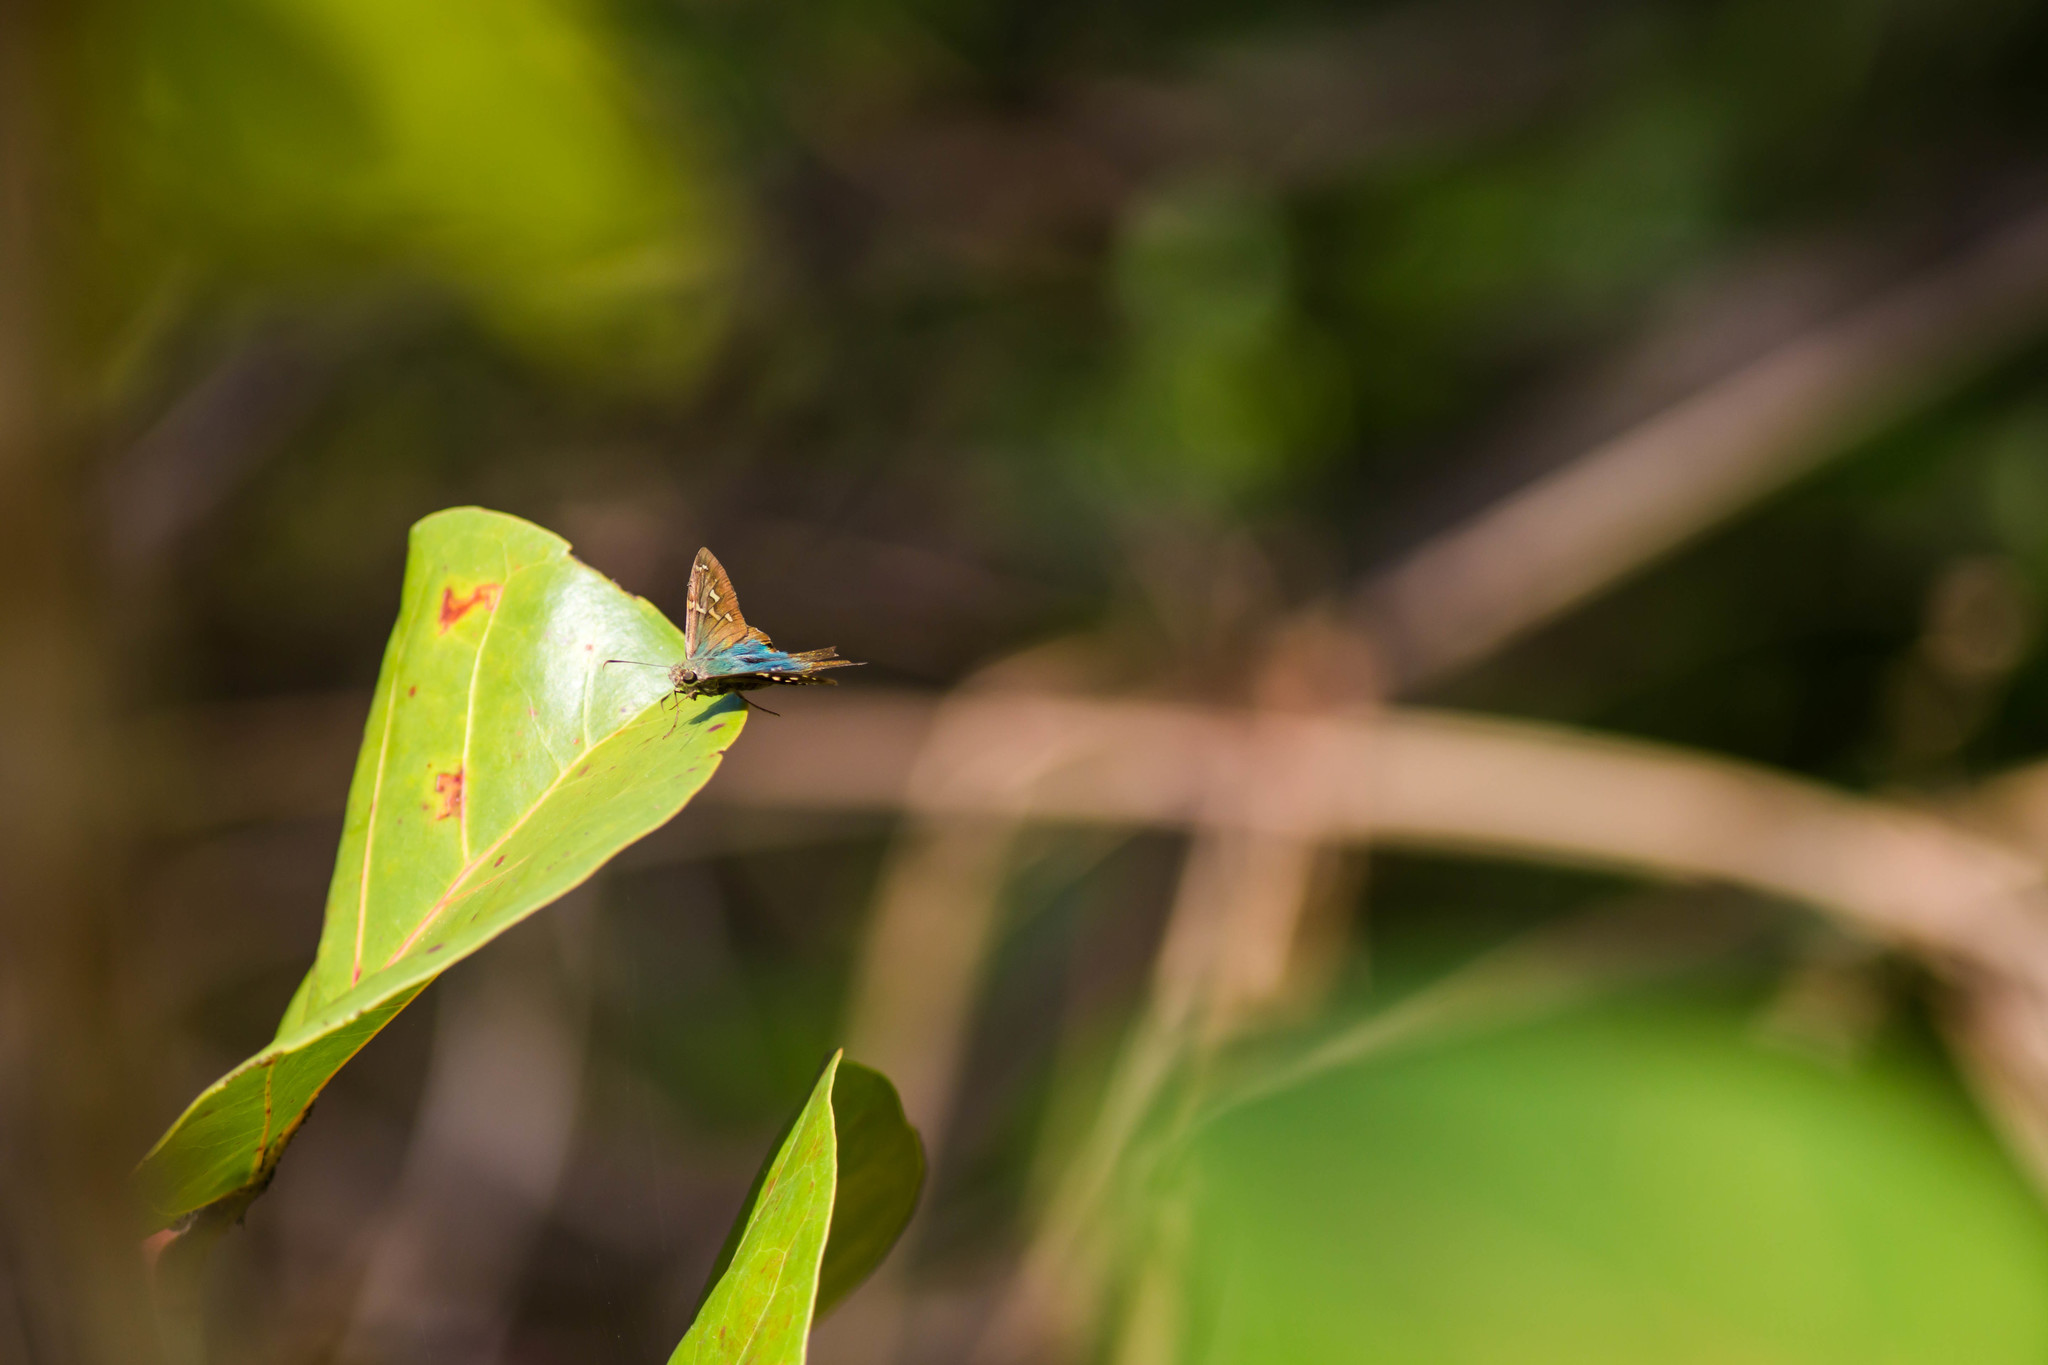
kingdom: Animalia
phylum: Arthropoda
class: Insecta
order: Lepidoptera
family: Hesperiidae
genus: Urbanus
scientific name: Urbanus proteus
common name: Long-tailed skipper
